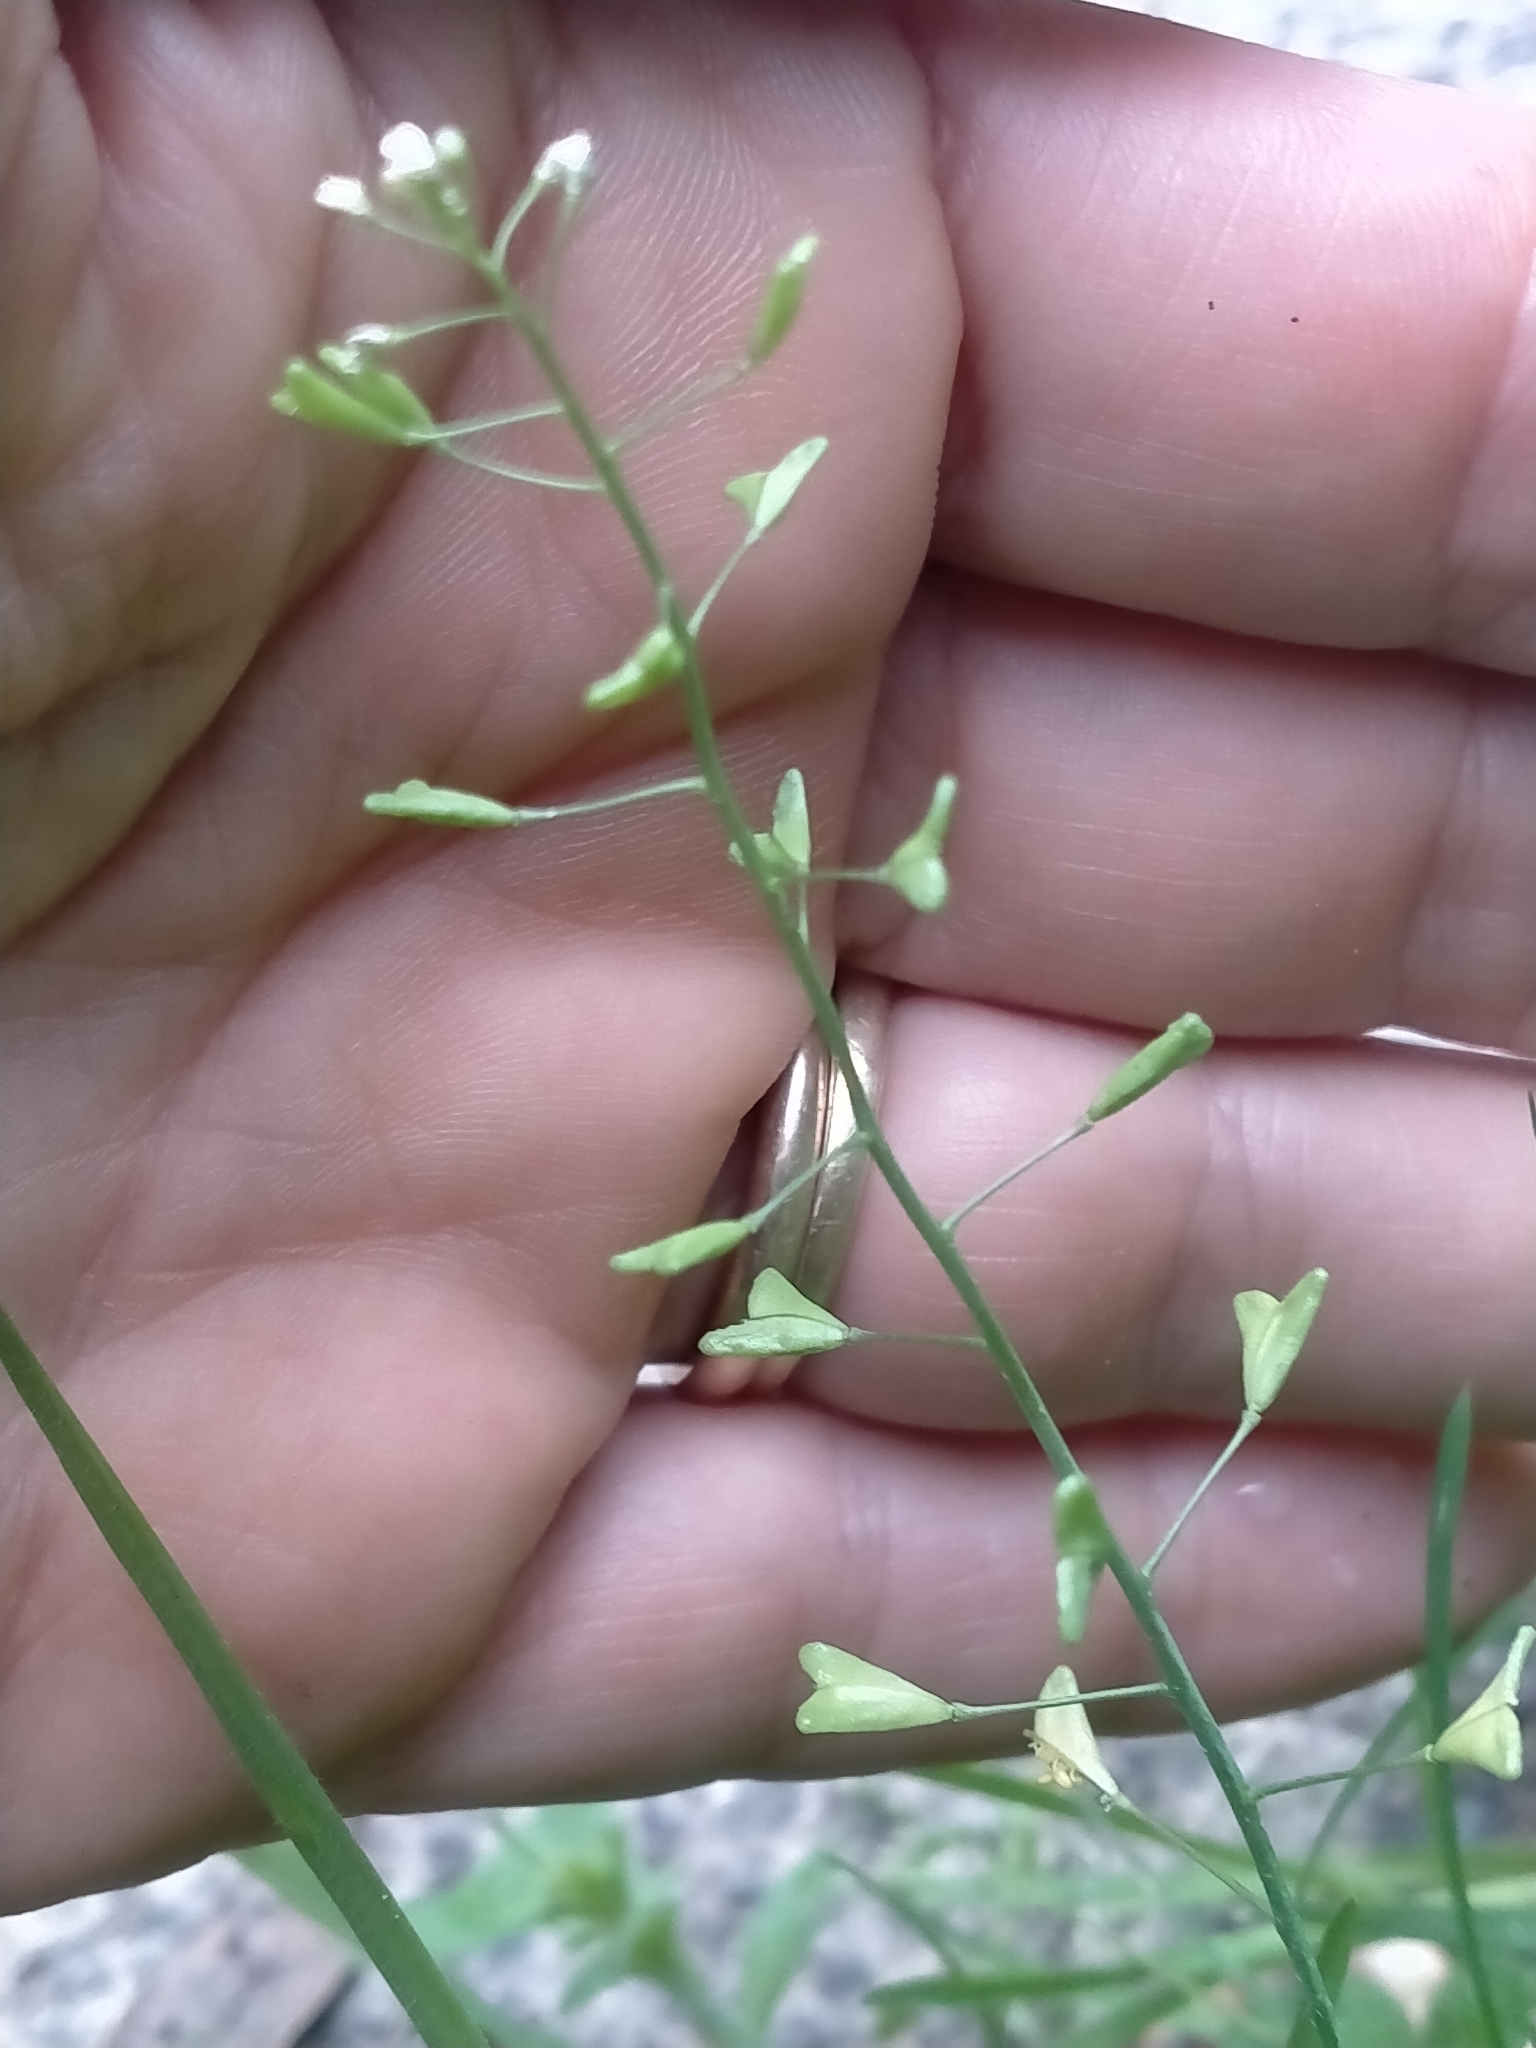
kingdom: Plantae
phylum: Tracheophyta
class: Magnoliopsida
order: Brassicales
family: Brassicaceae
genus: Capsella
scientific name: Capsella bursa-pastoris
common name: Shepherd's purse
